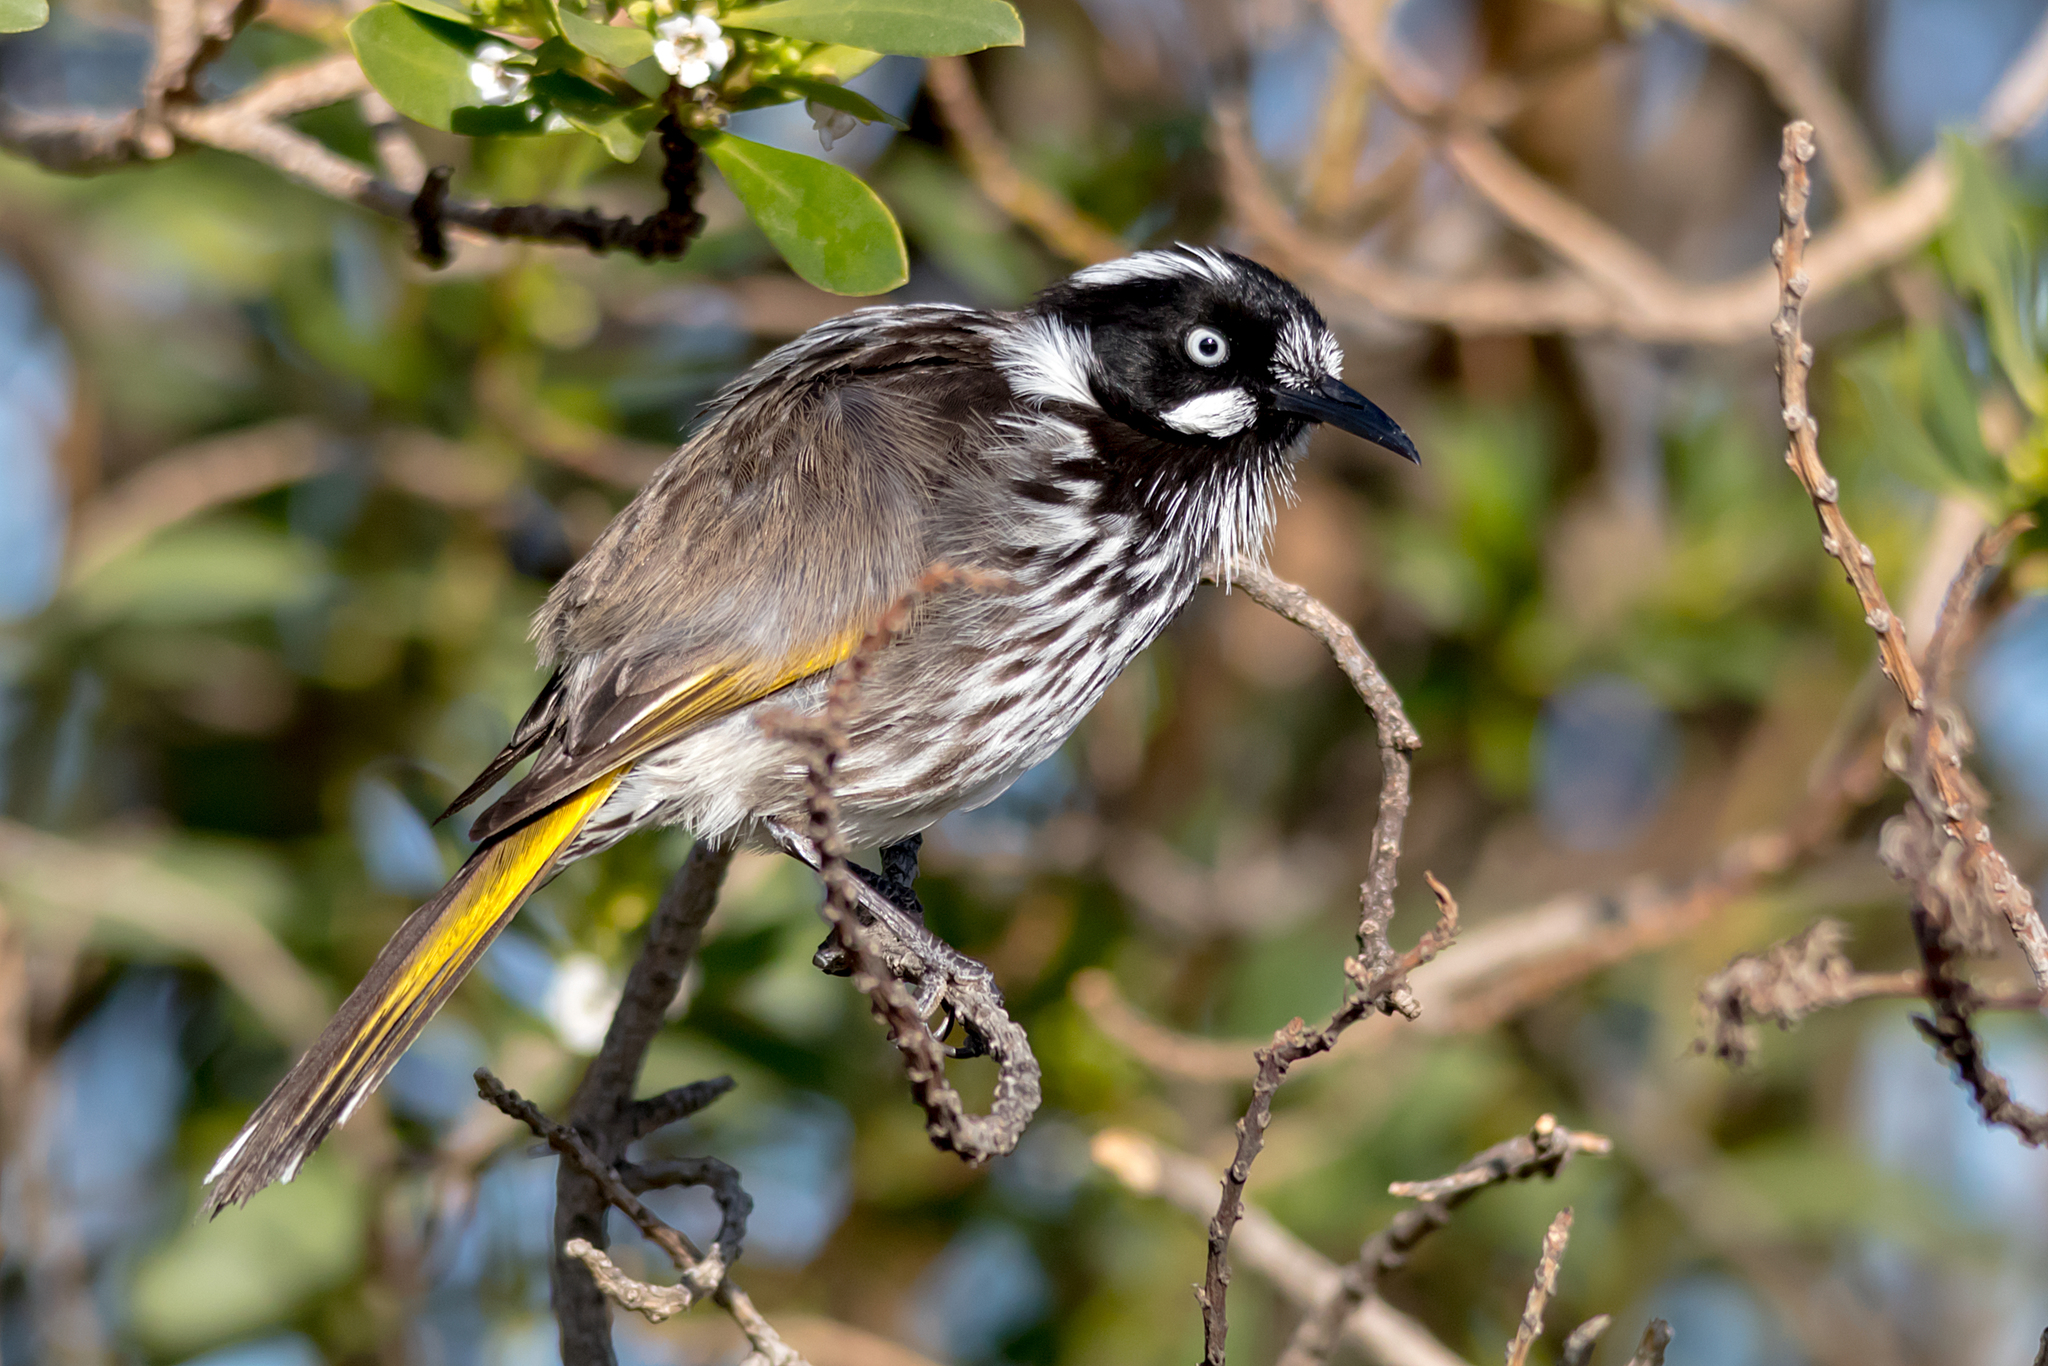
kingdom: Animalia
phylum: Chordata
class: Aves
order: Passeriformes
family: Meliphagidae
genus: Phylidonyris
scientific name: Phylidonyris novaehollandiae
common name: New holland honeyeater
